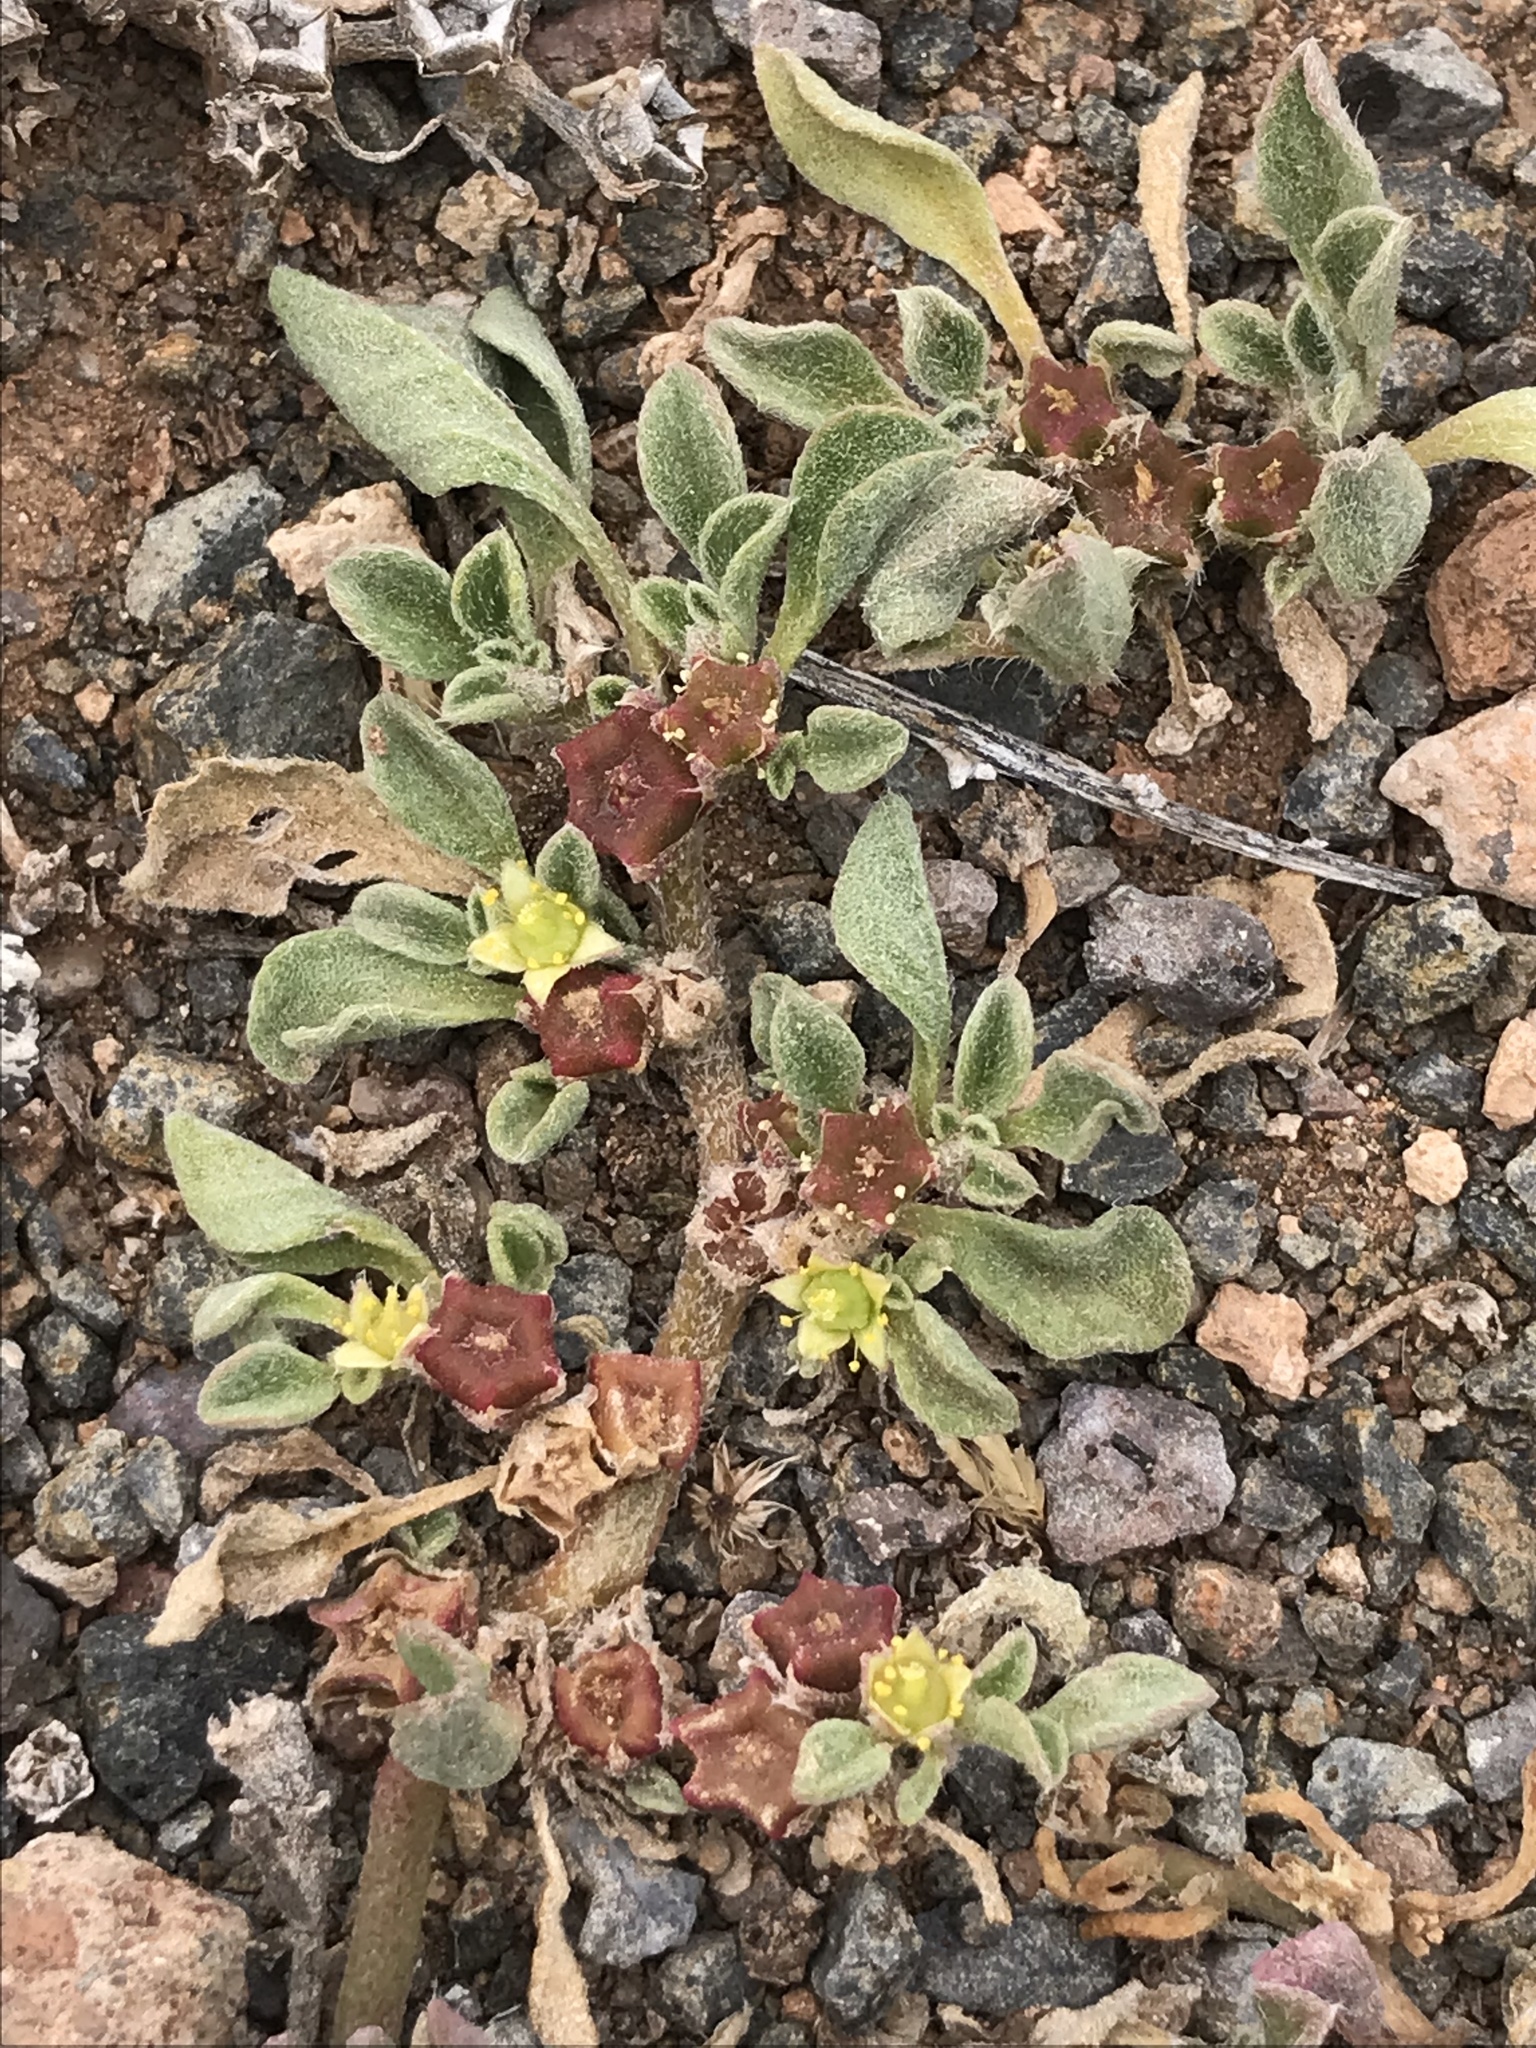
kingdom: Plantae
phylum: Tracheophyta
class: Magnoliopsida
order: Caryophyllales
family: Aizoaceae
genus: Aizoon
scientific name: Aizoon canariense
